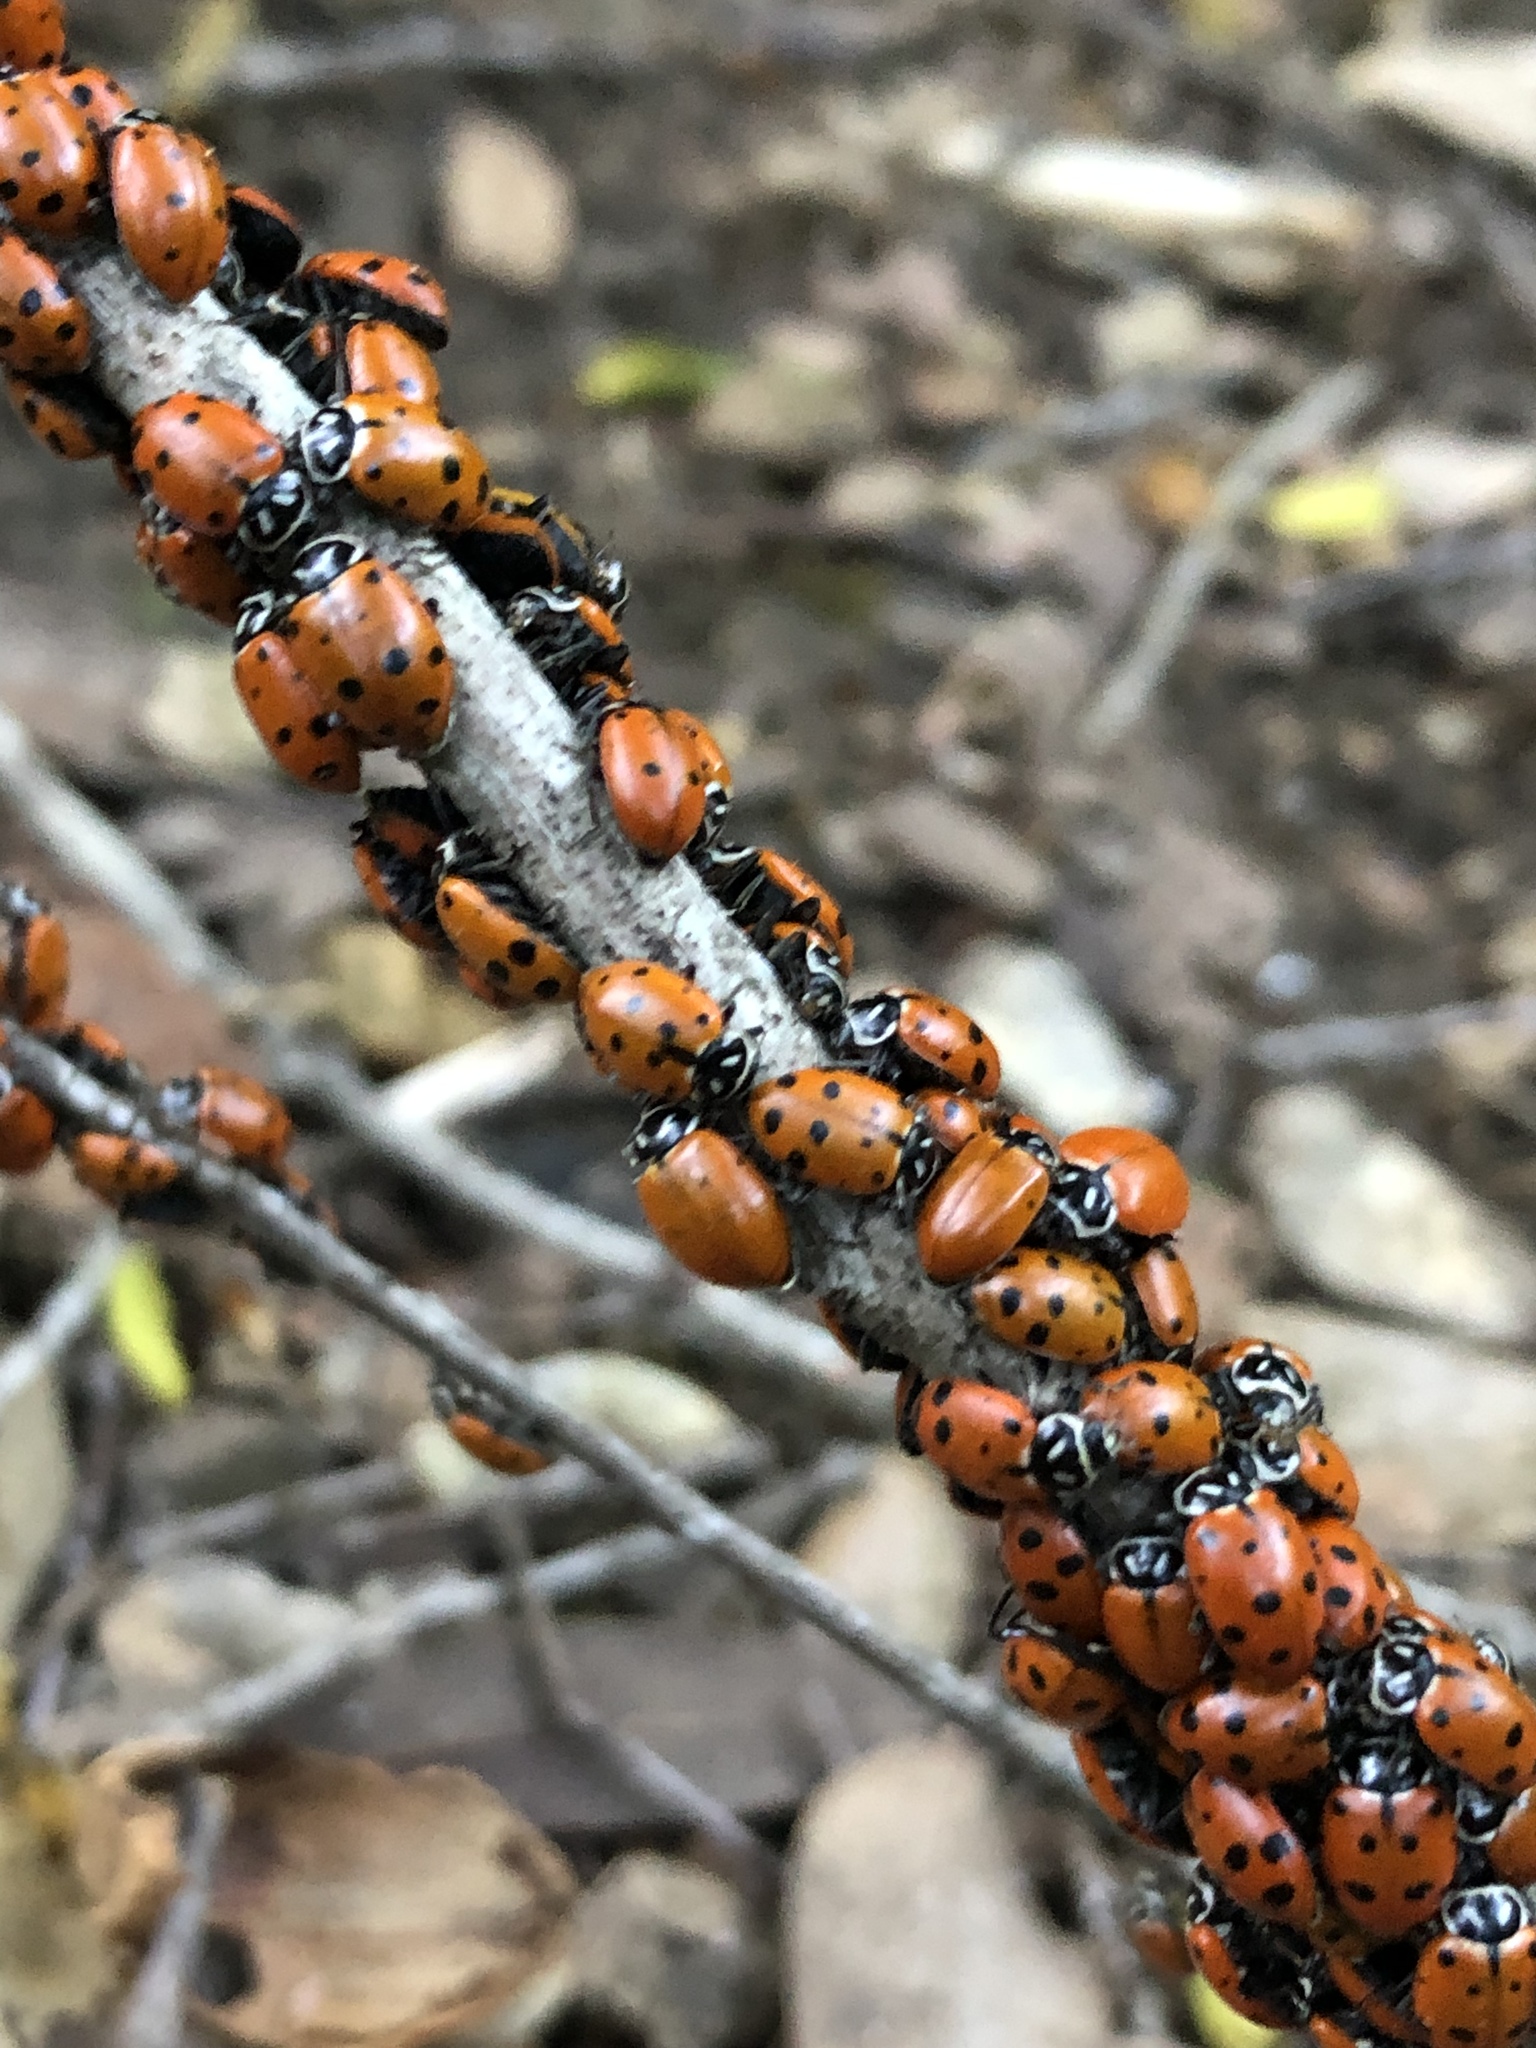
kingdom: Animalia
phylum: Arthropoda
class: Insecta
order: Coleoptera
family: Coccinellidae
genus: Hippodamia
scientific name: Hippodamia convergens
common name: Convergent lady beetle
